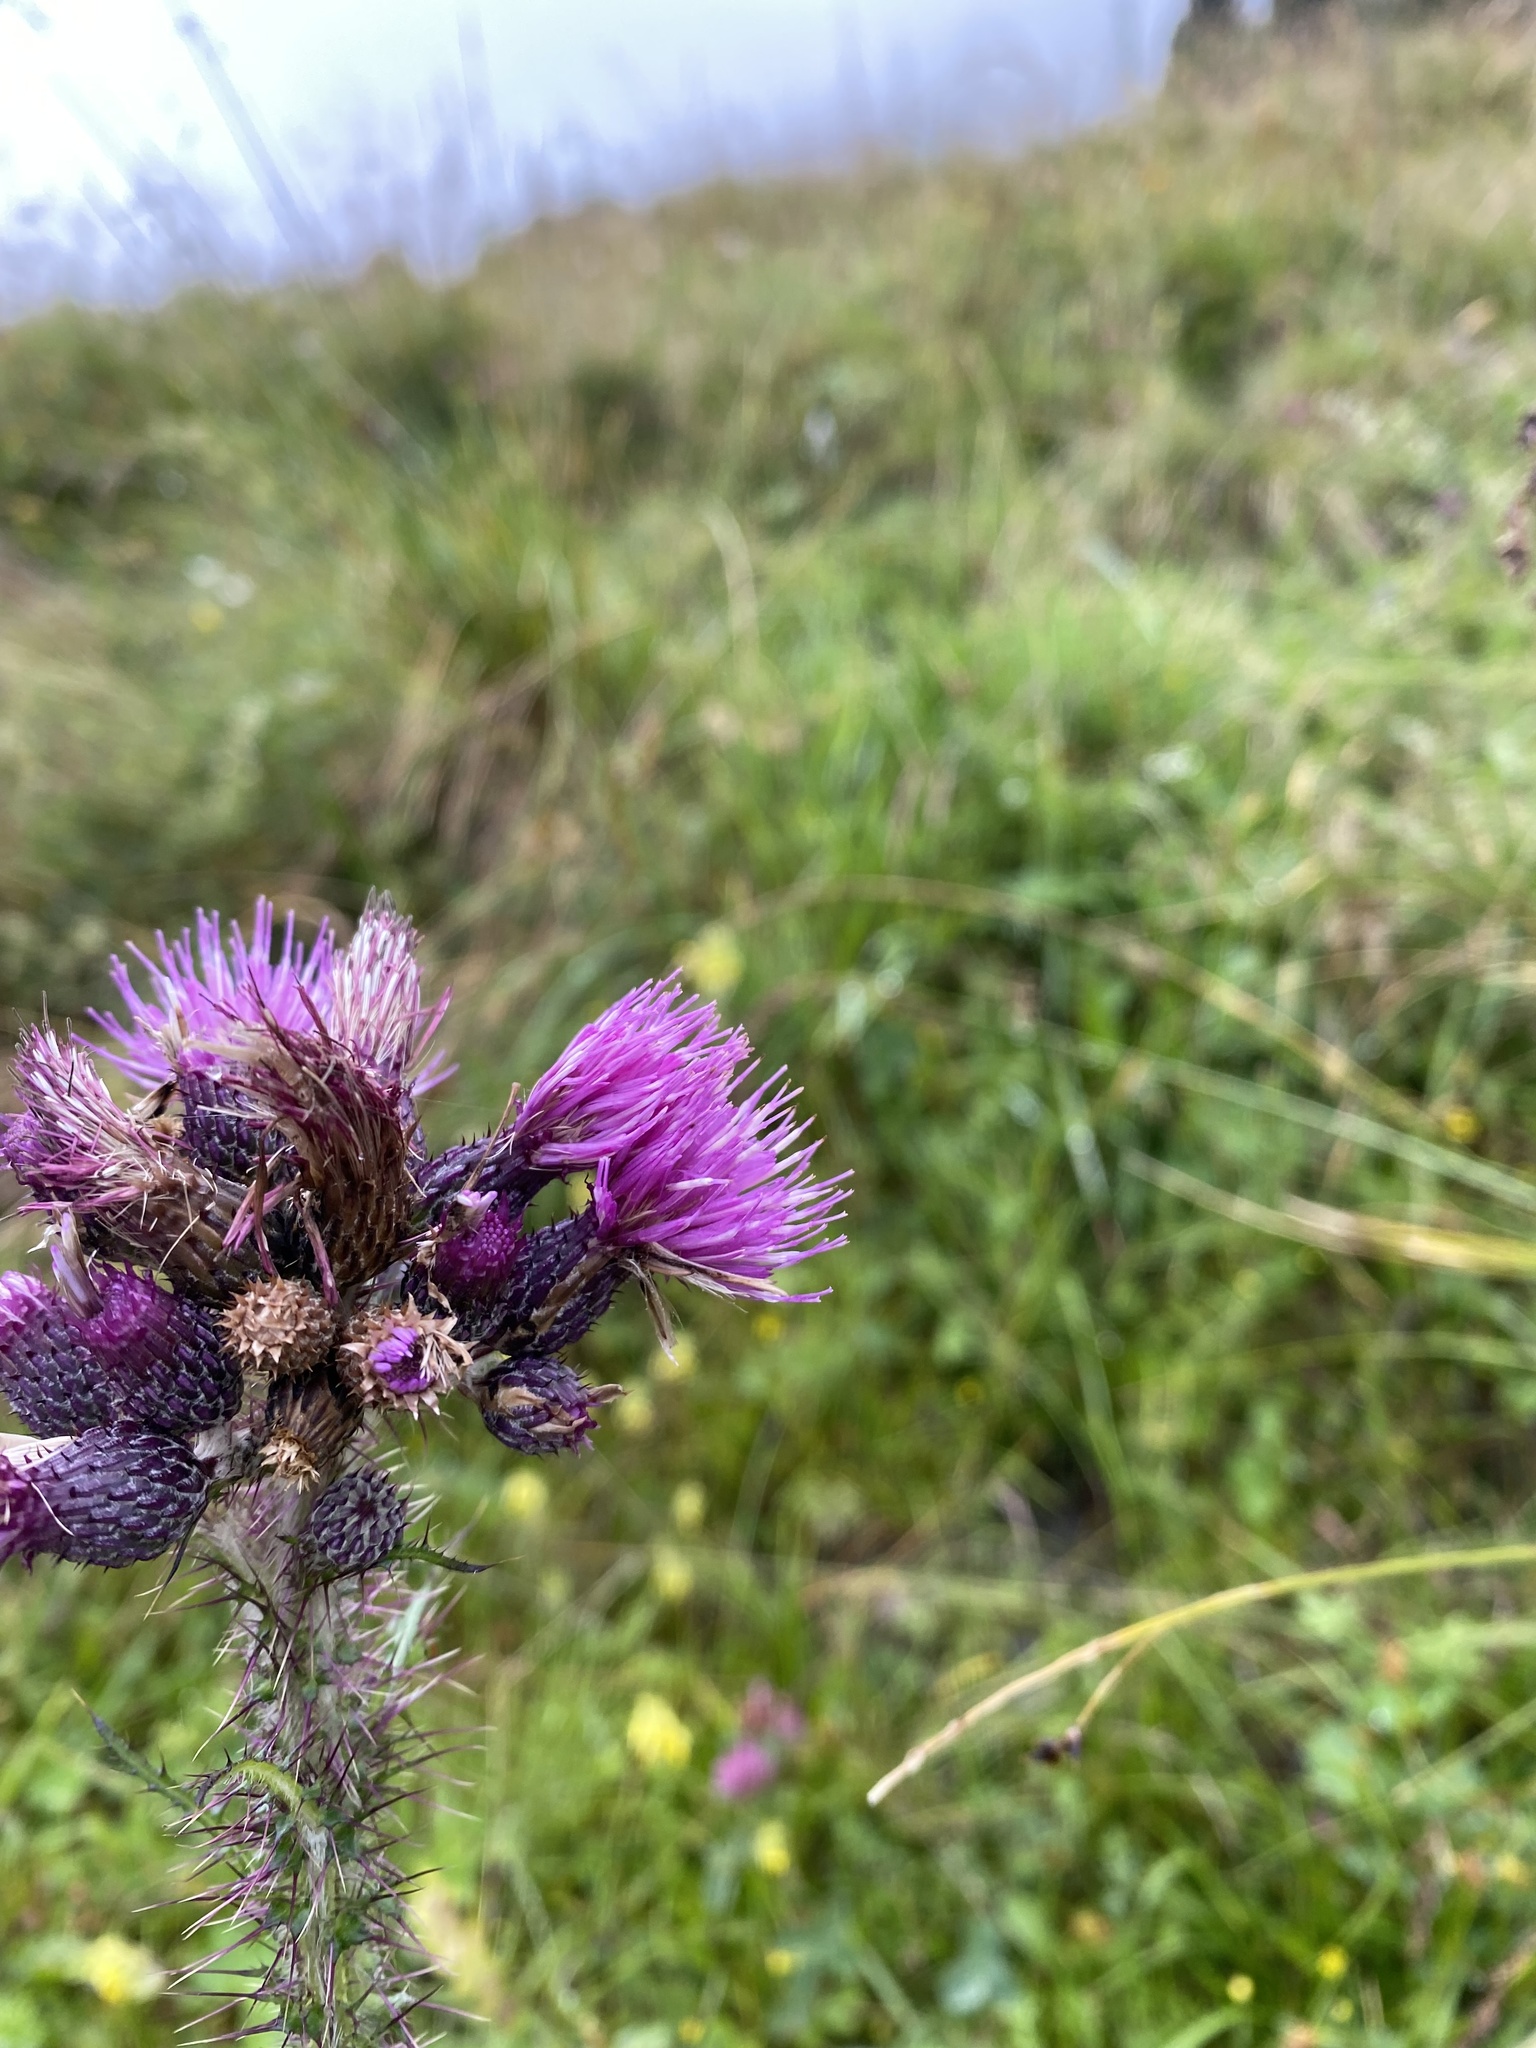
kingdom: Plantae
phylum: Tracheophyta
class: Magnoliopsida
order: Asterales
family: Asteraceae
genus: Cirsium
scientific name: Cirsium palustre
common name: Marsh thistle
